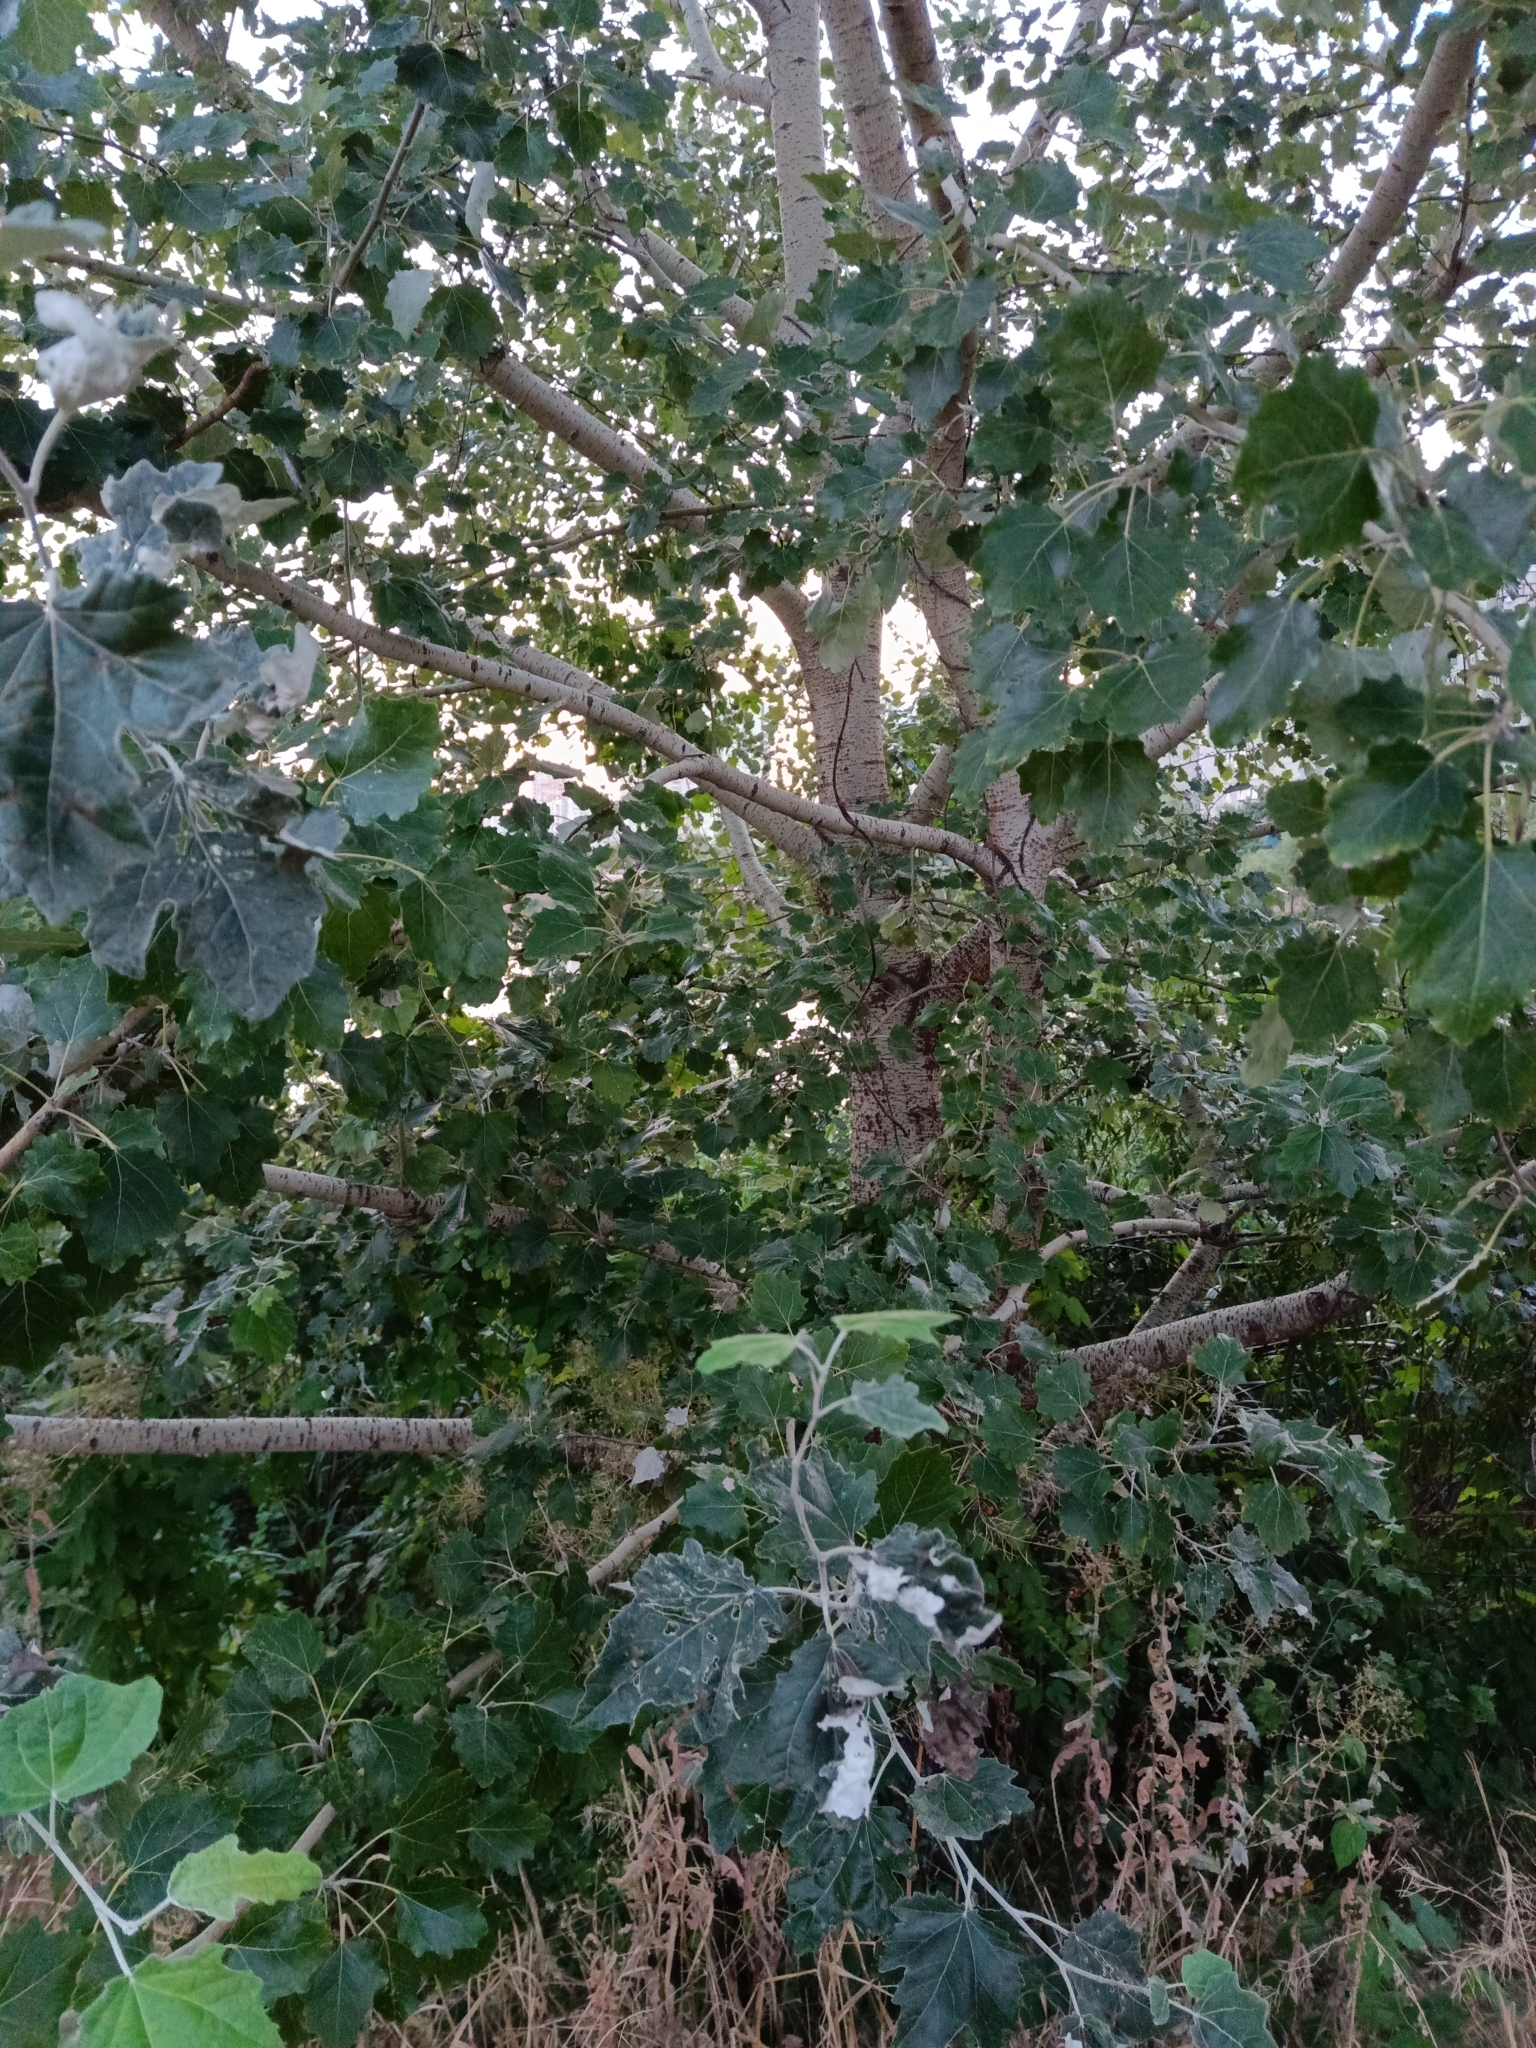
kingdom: Plantae
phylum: Tracheophyta
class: Magnoliopsida
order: Malpighiales
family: Salicaceae
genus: Populus
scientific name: Populus canescens
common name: Gray poplar
